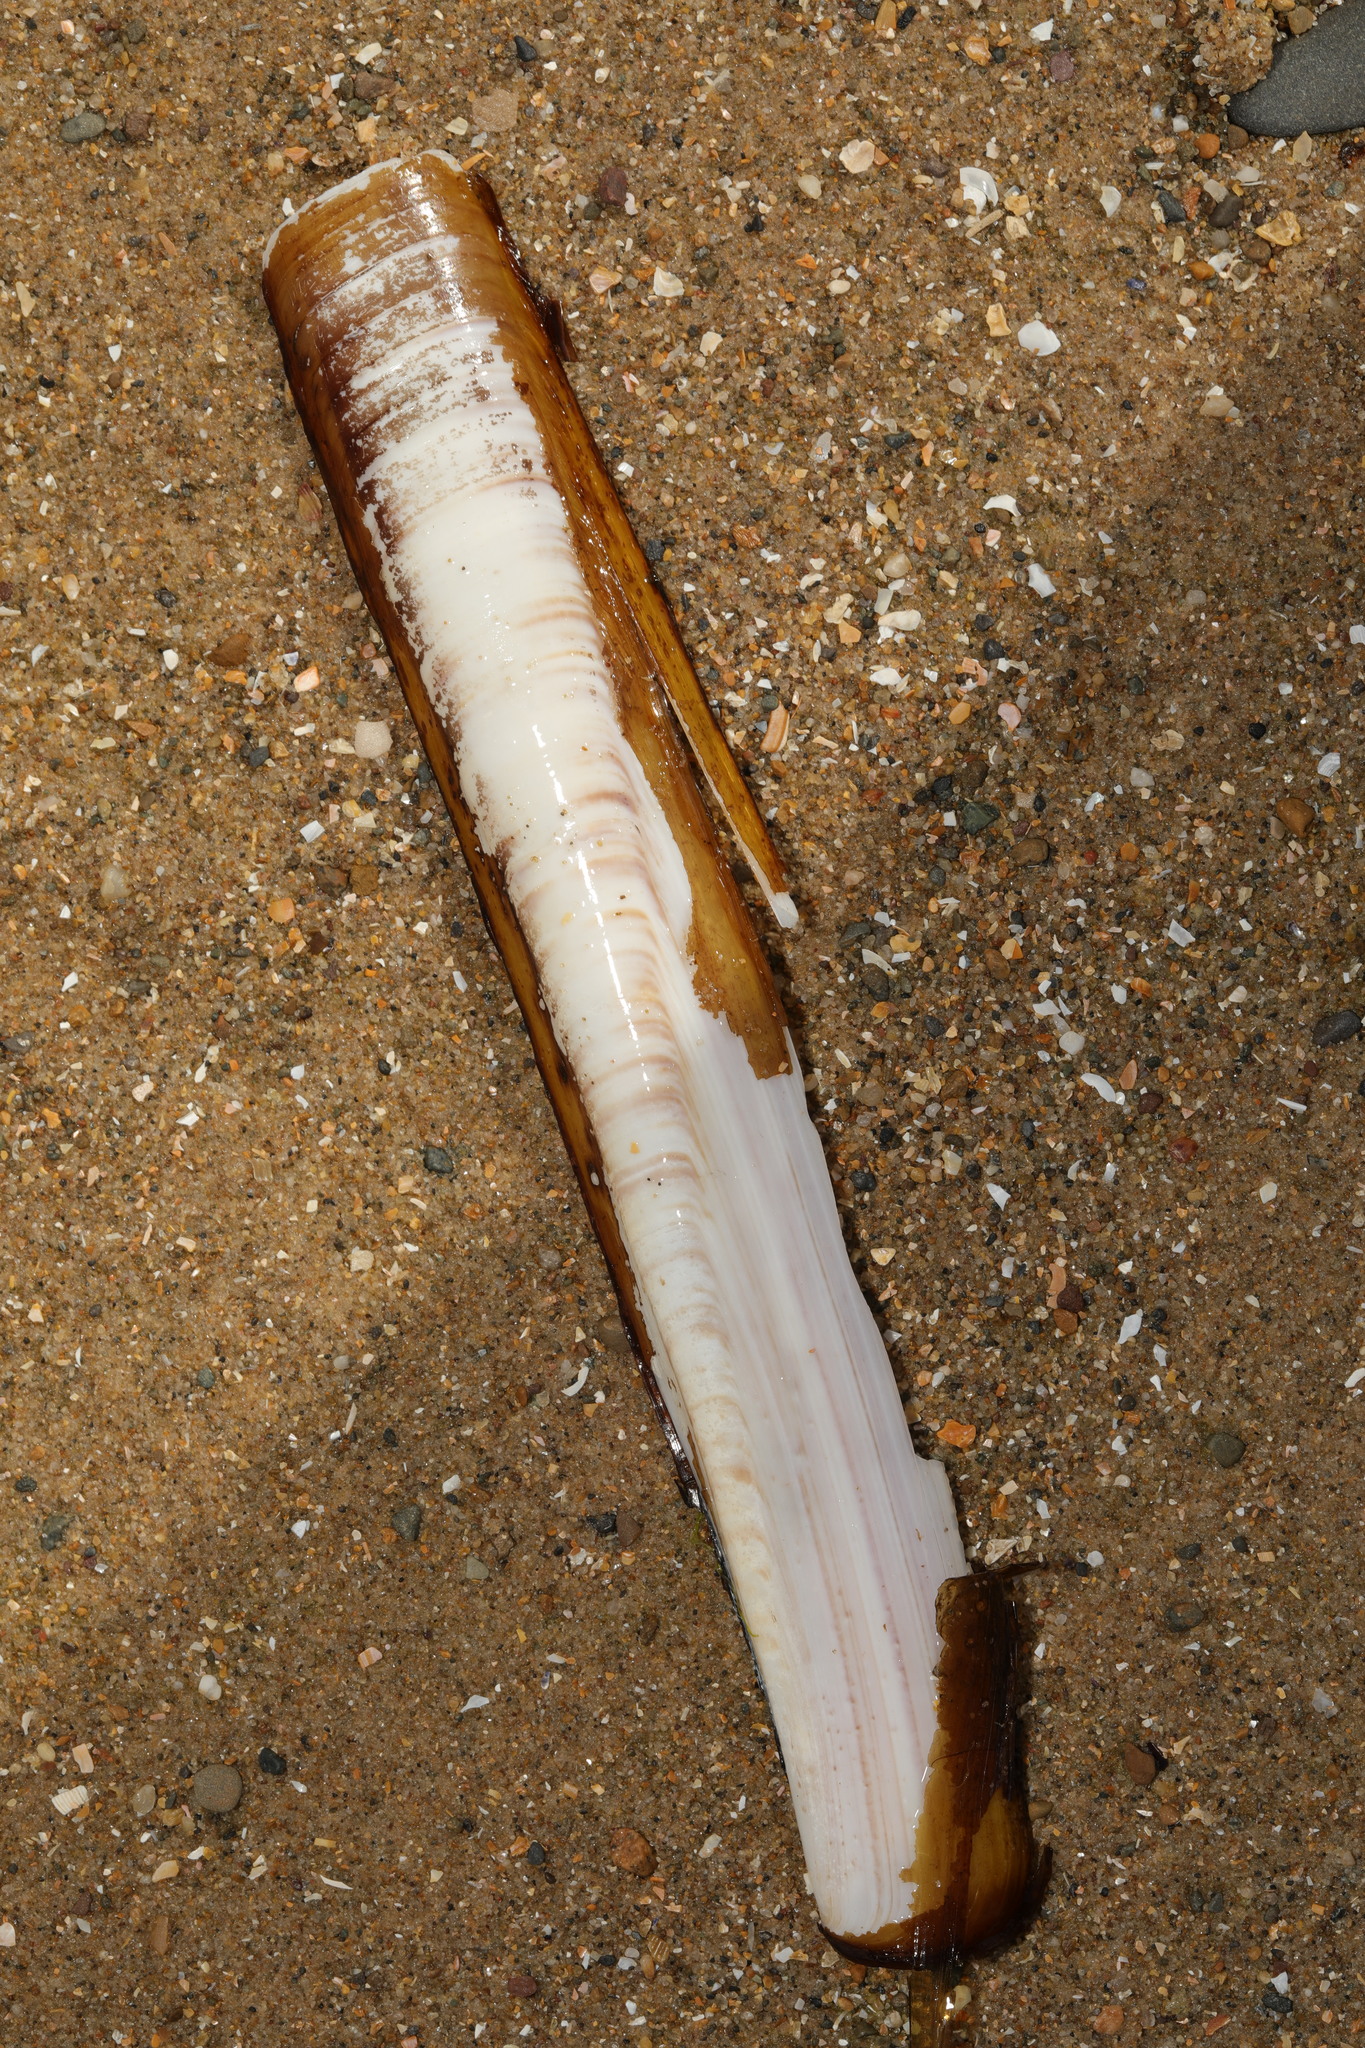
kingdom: Animalia
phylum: Mollusca
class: Bivalvia
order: Adapedonta
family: Pharidae
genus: Ensis
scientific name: Ensis siliqua
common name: Pod razor shell
